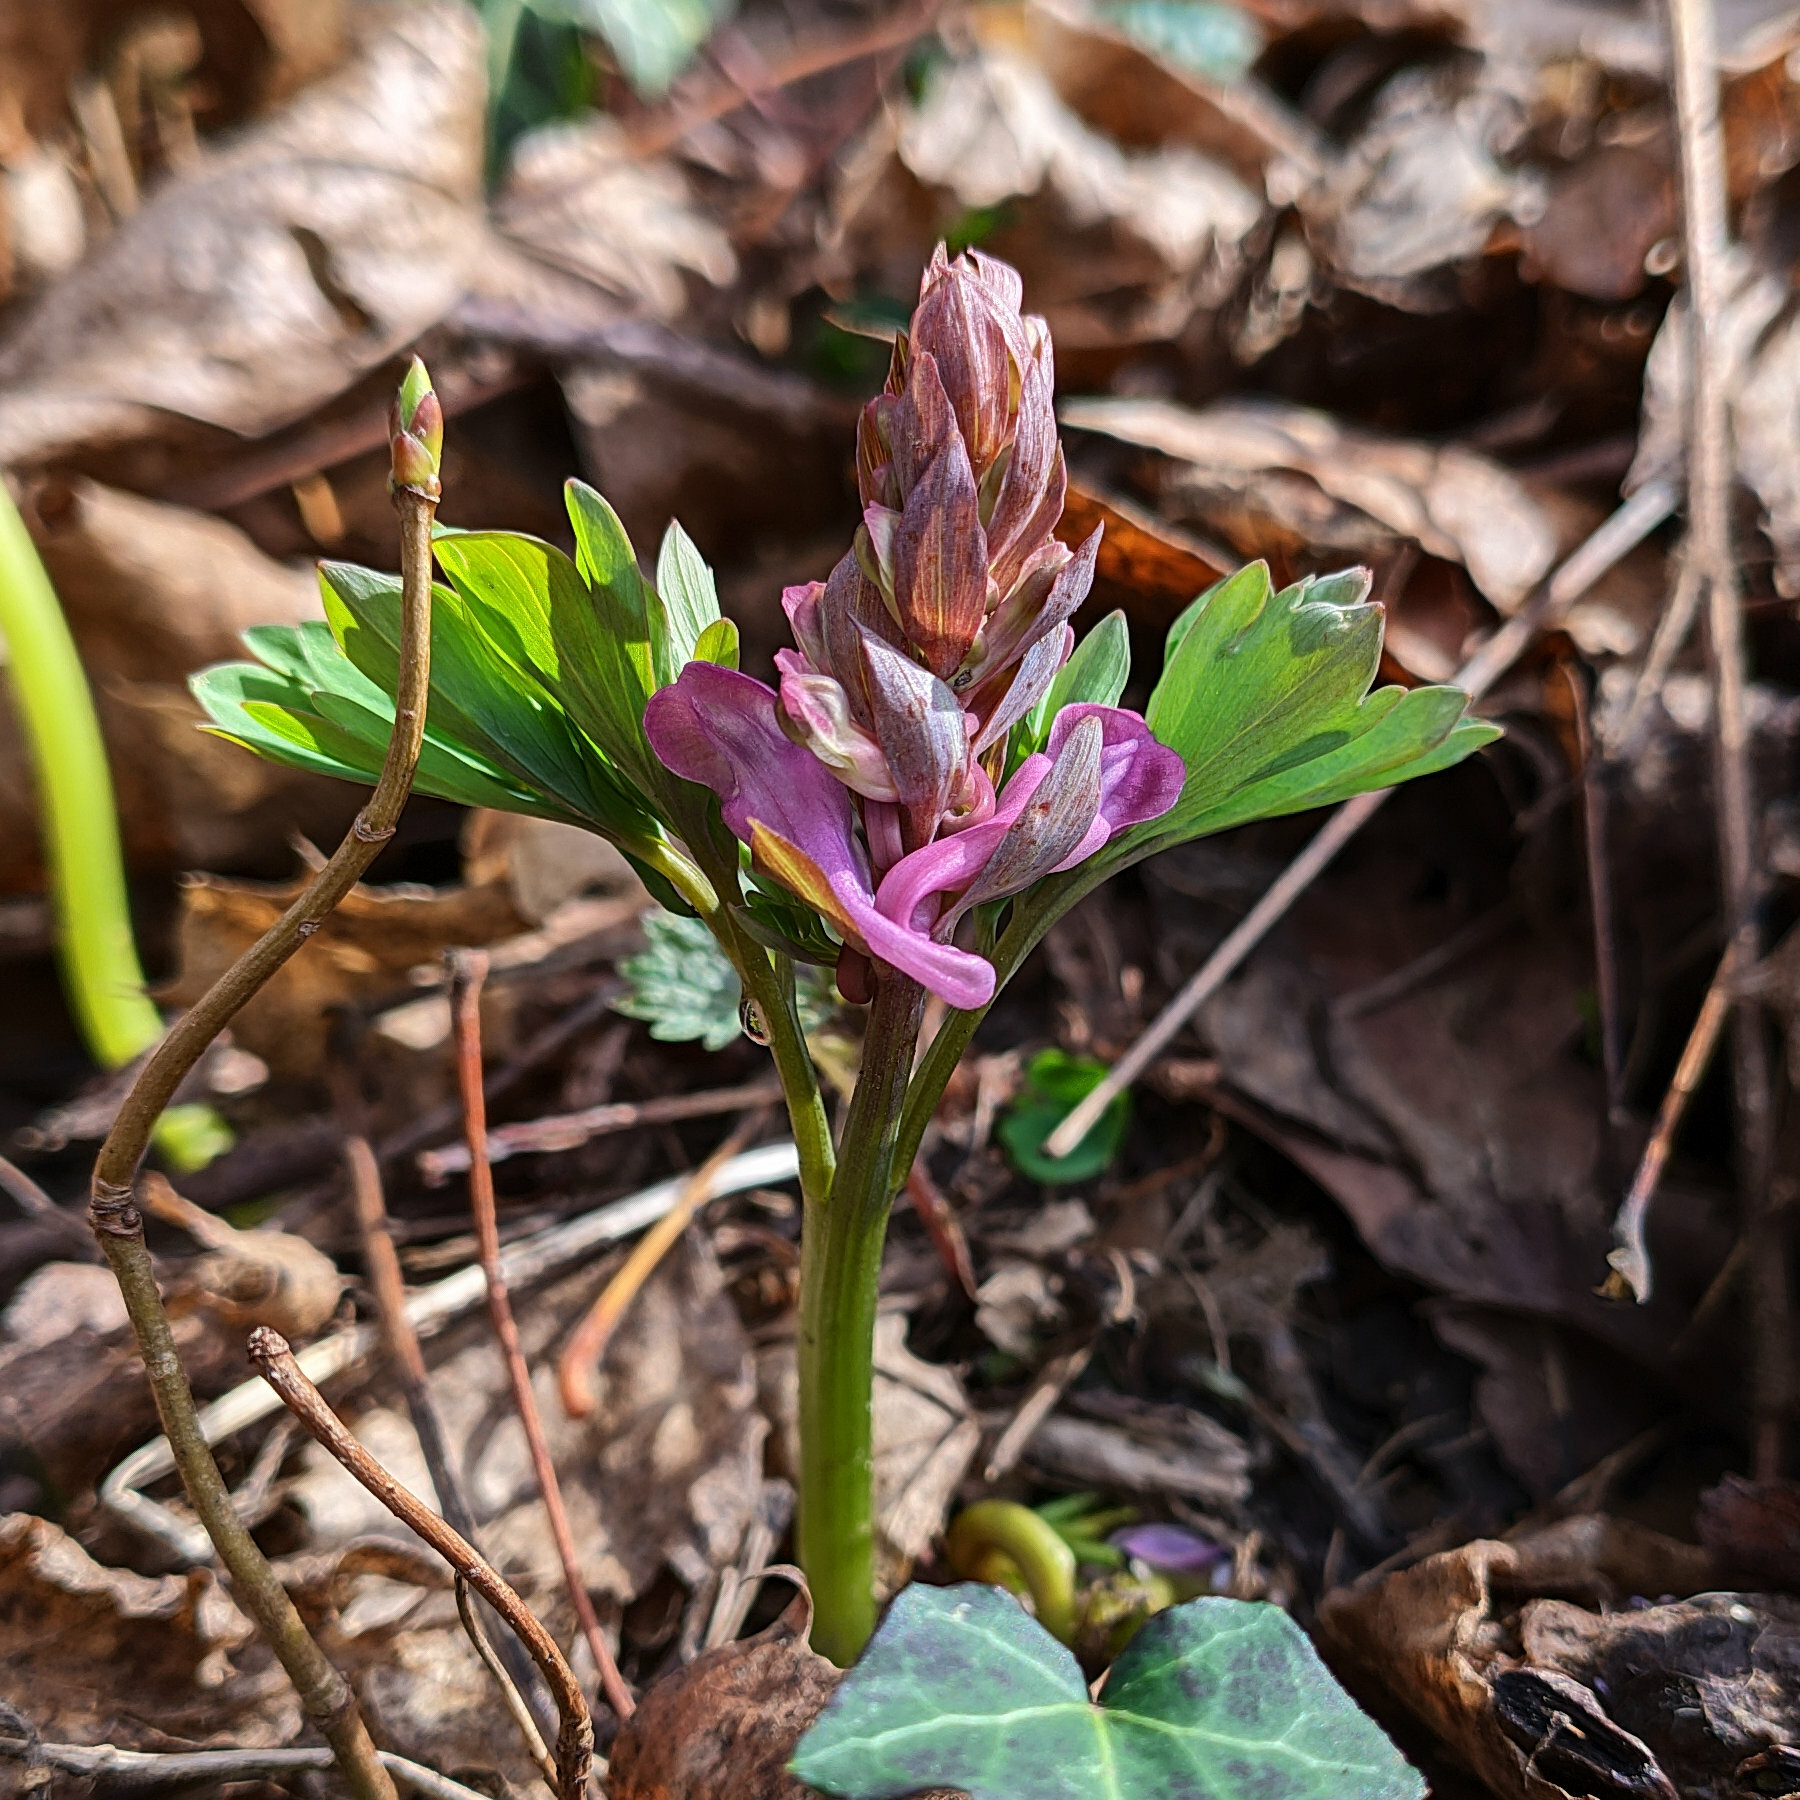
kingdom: Plantae
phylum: Tracheophyta
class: Magnoliopsida
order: Ranunculales
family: Papaveraceae
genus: Corydalis
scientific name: Corydalis cava
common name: Hollowroot
